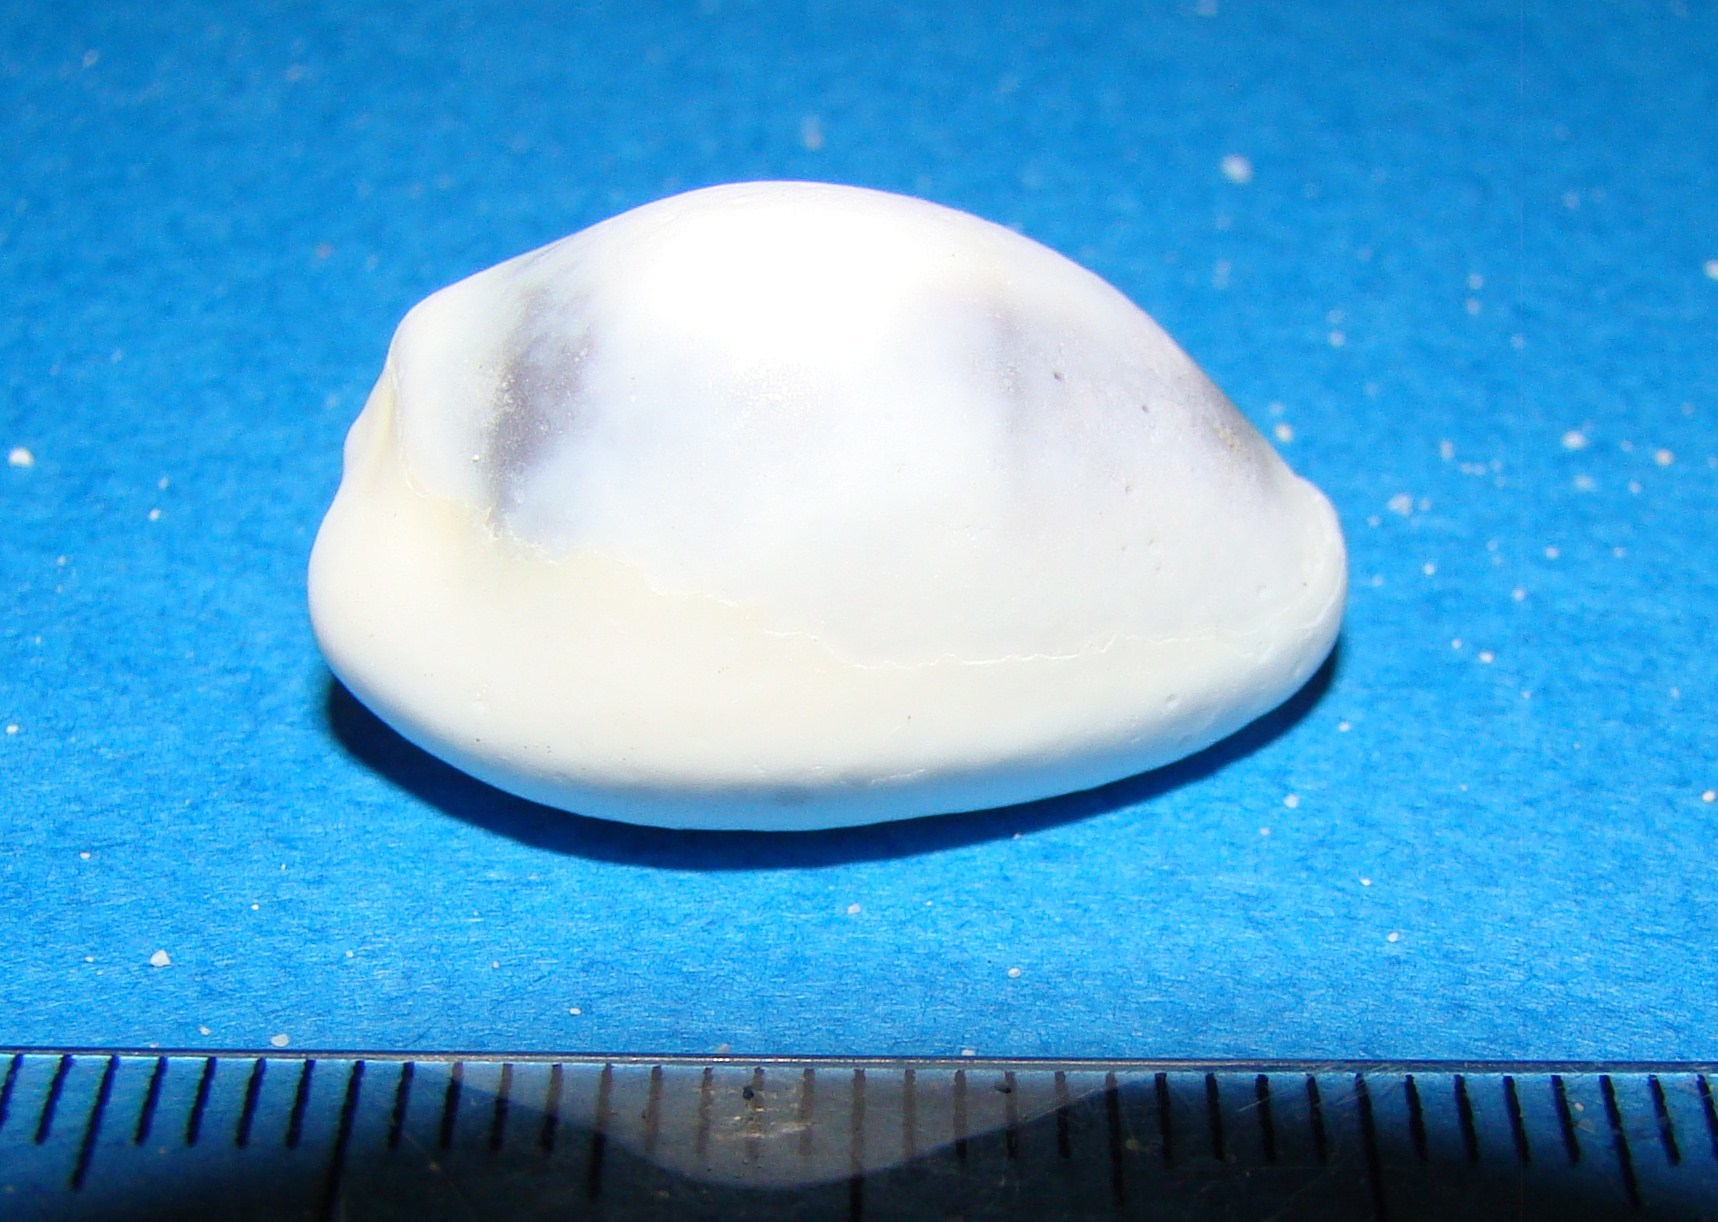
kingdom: Animalia
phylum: Mollusca
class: Gastropoda
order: Littorinimorpha
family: Cypraeidae
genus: Monetaria
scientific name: Monetaria moneta
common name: Money cowrie
